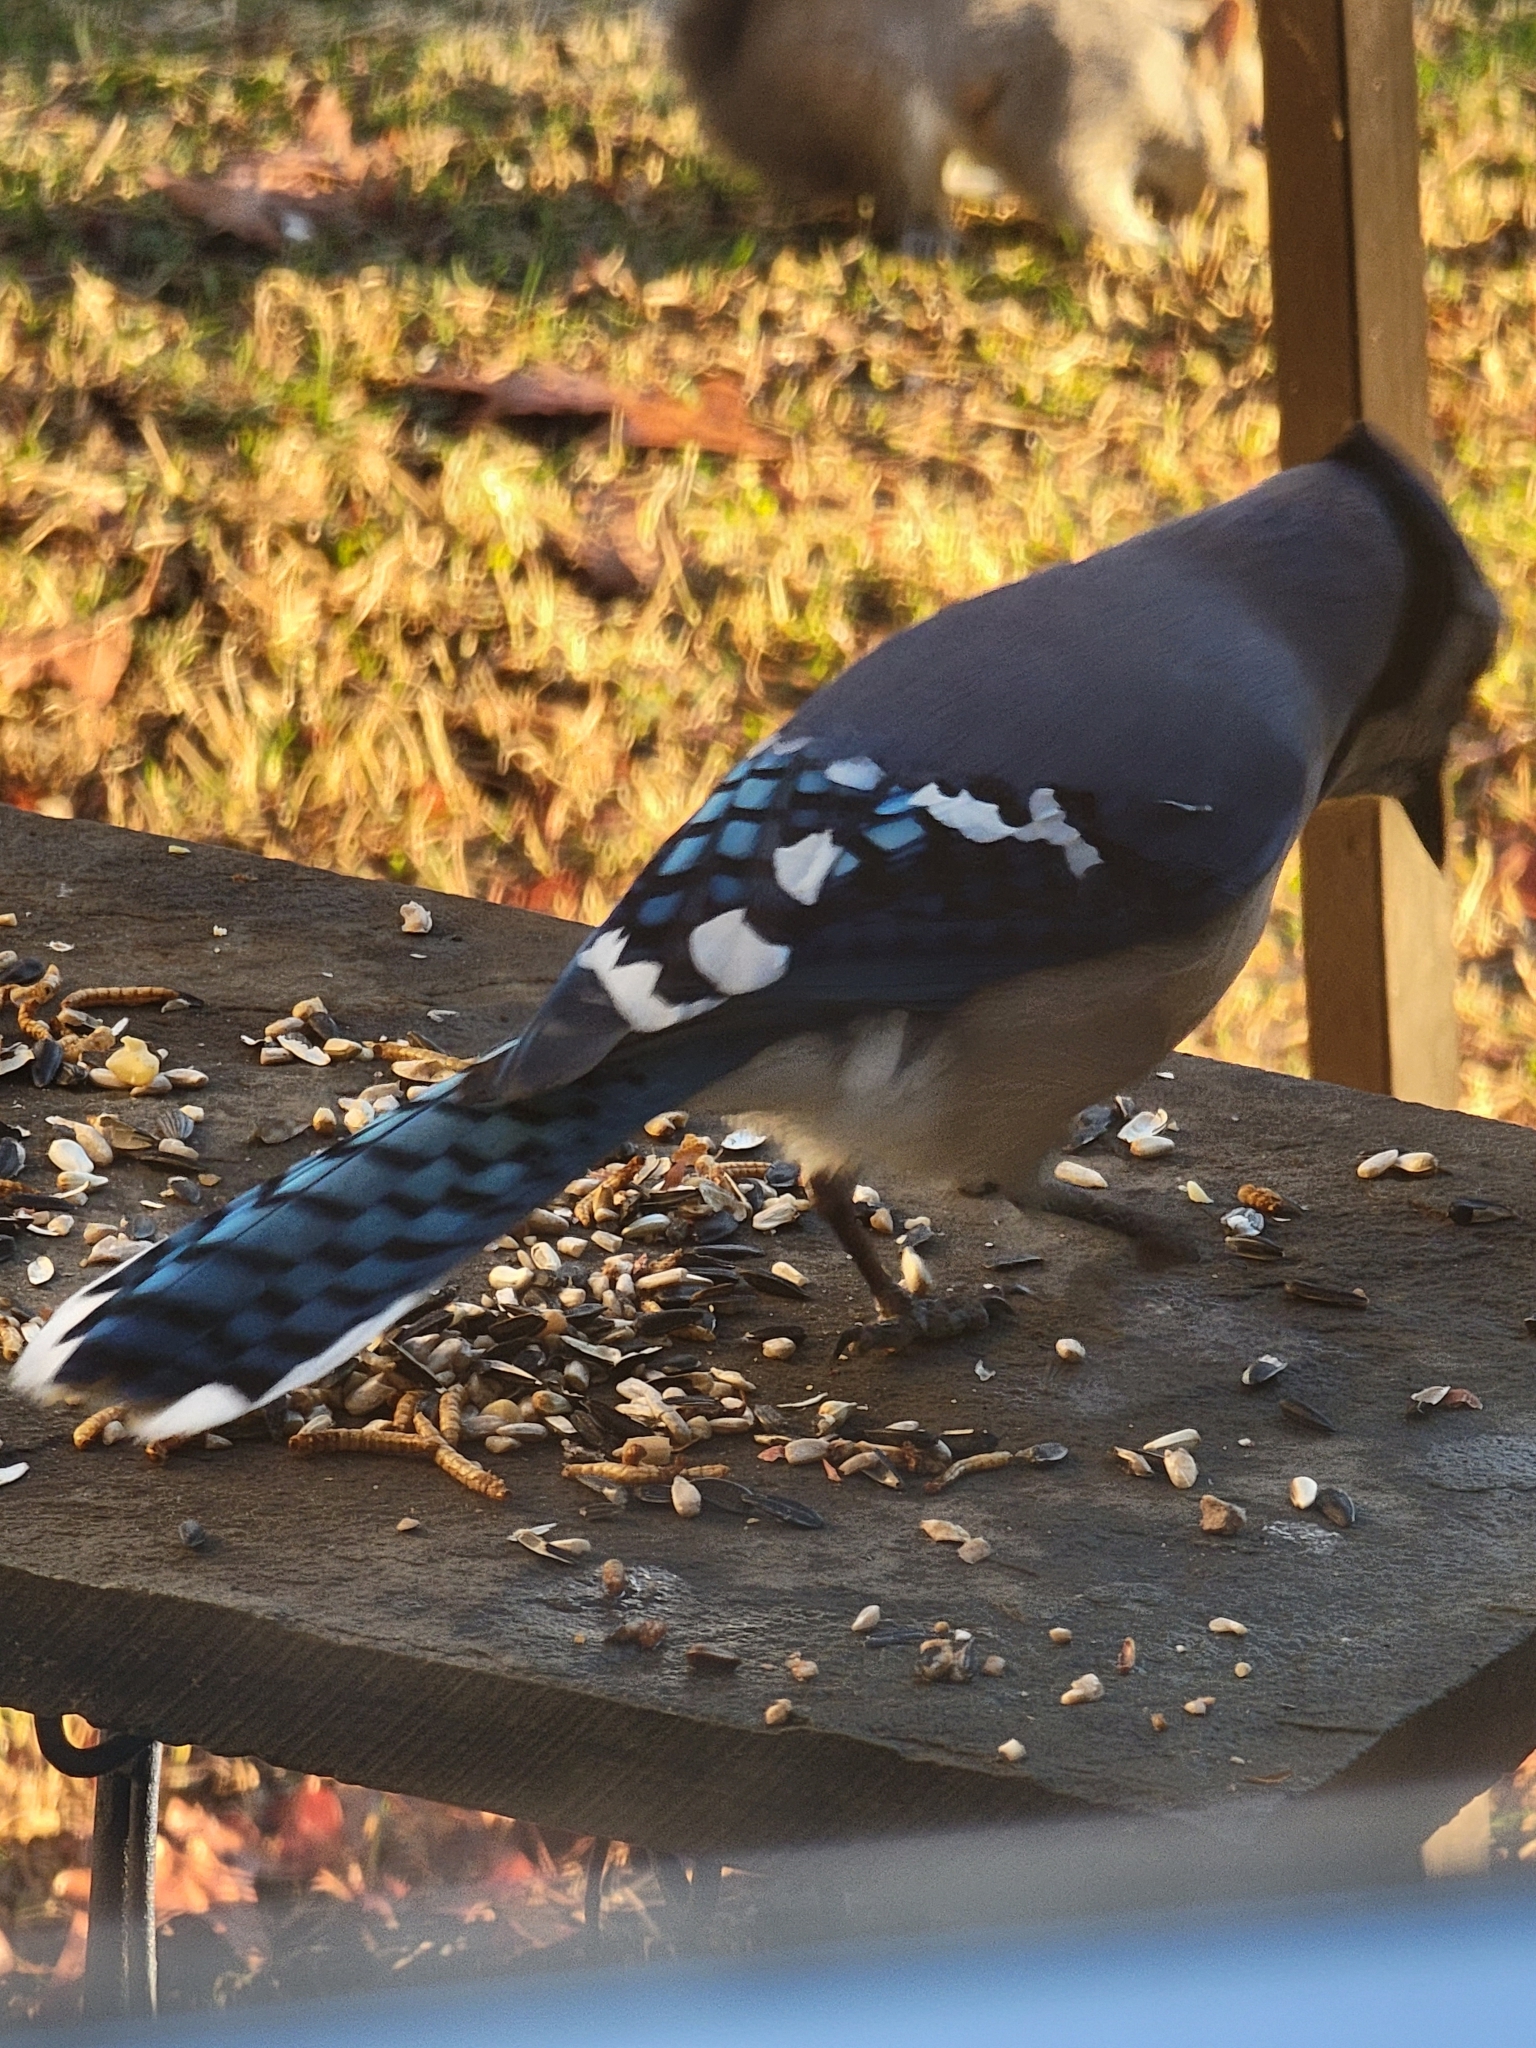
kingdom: Animalia
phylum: Chordata
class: Aves
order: Passeriformes
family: Corvidae
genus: Cyanocitta
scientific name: Cyanocitta cristata
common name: Blue jay
